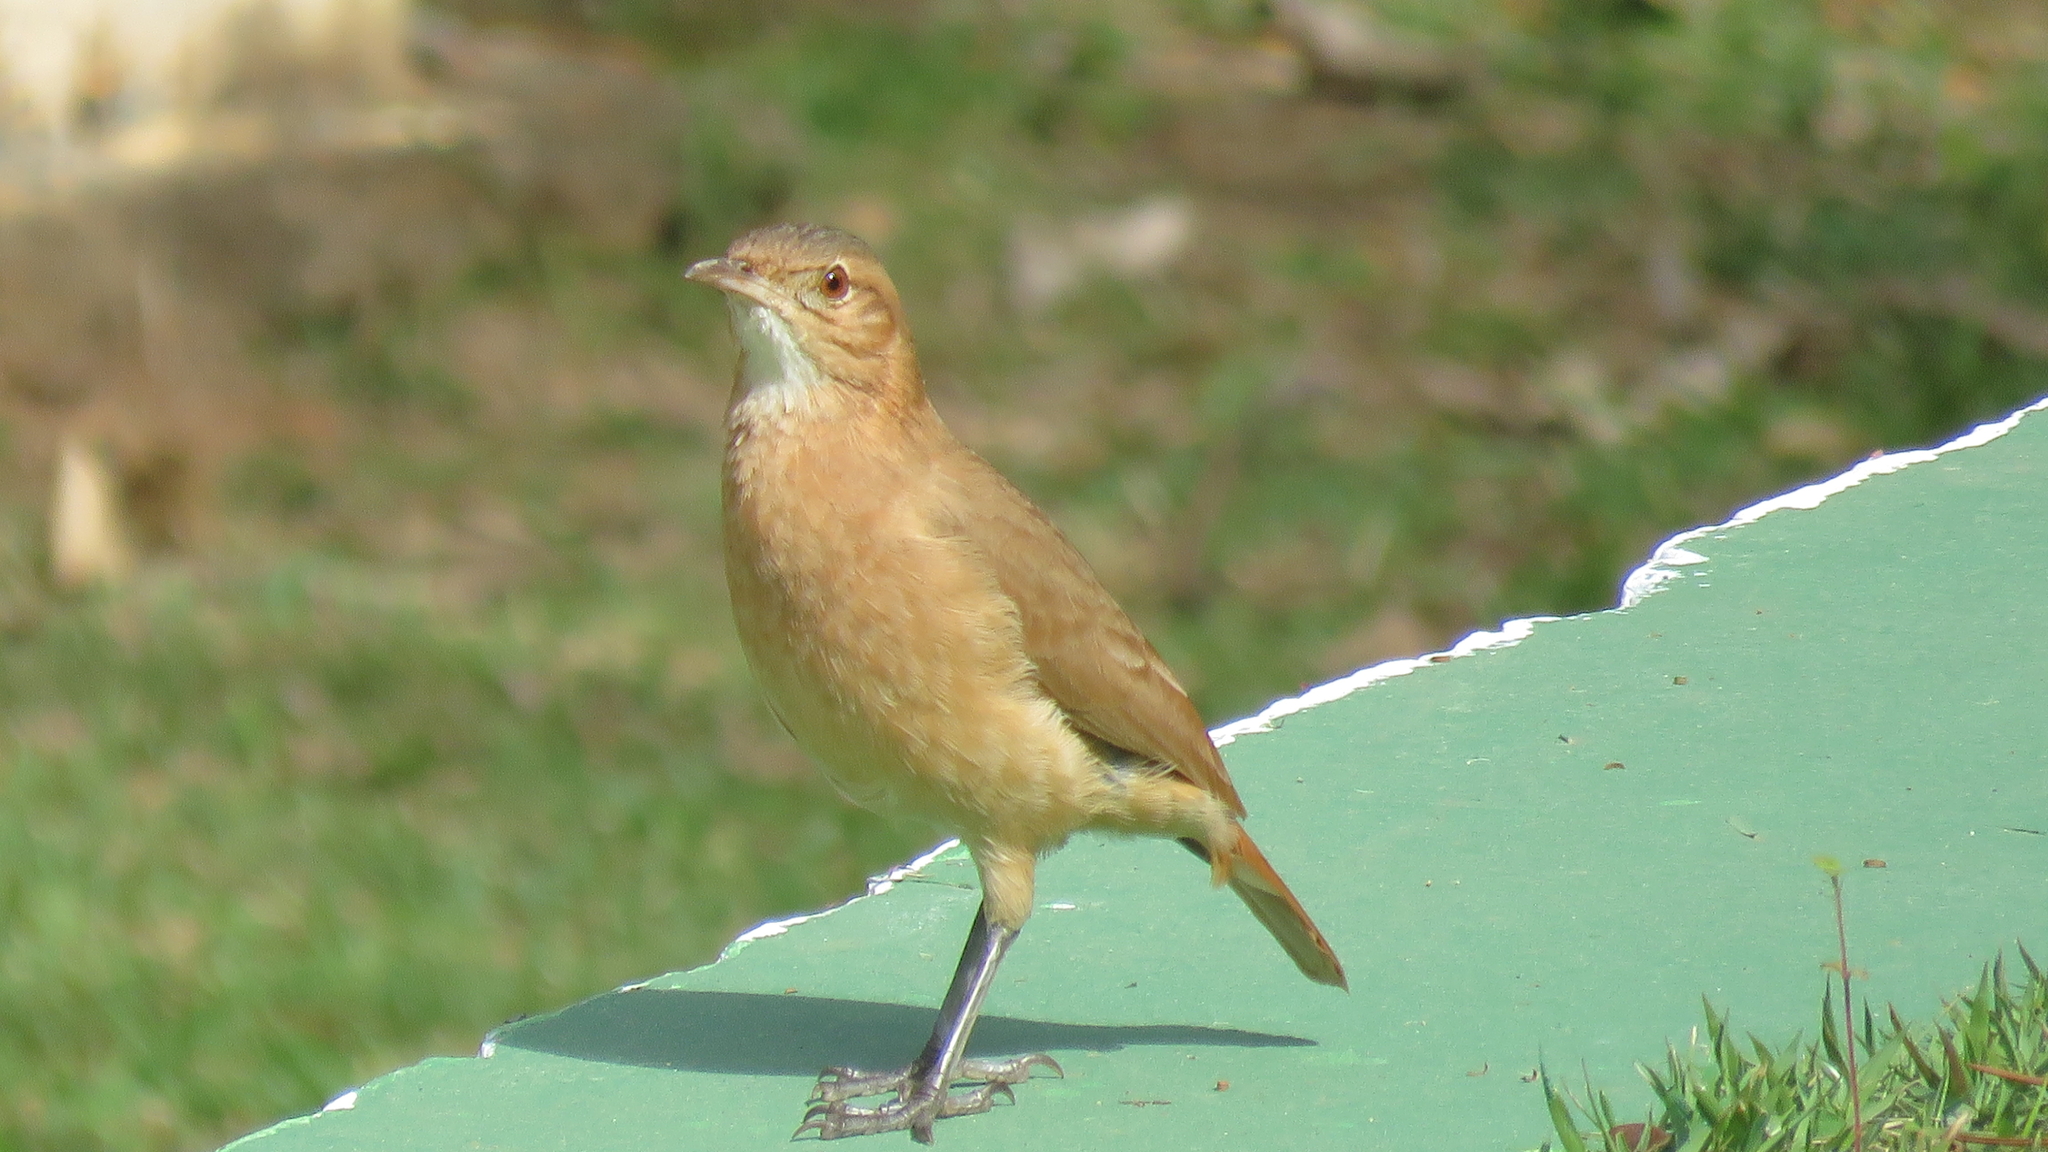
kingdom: Animalia
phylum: Chordata
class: Aves
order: Passeriformes
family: Furnariidae
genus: Furnarius
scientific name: Furnarius rufus
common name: Rufous hornero
